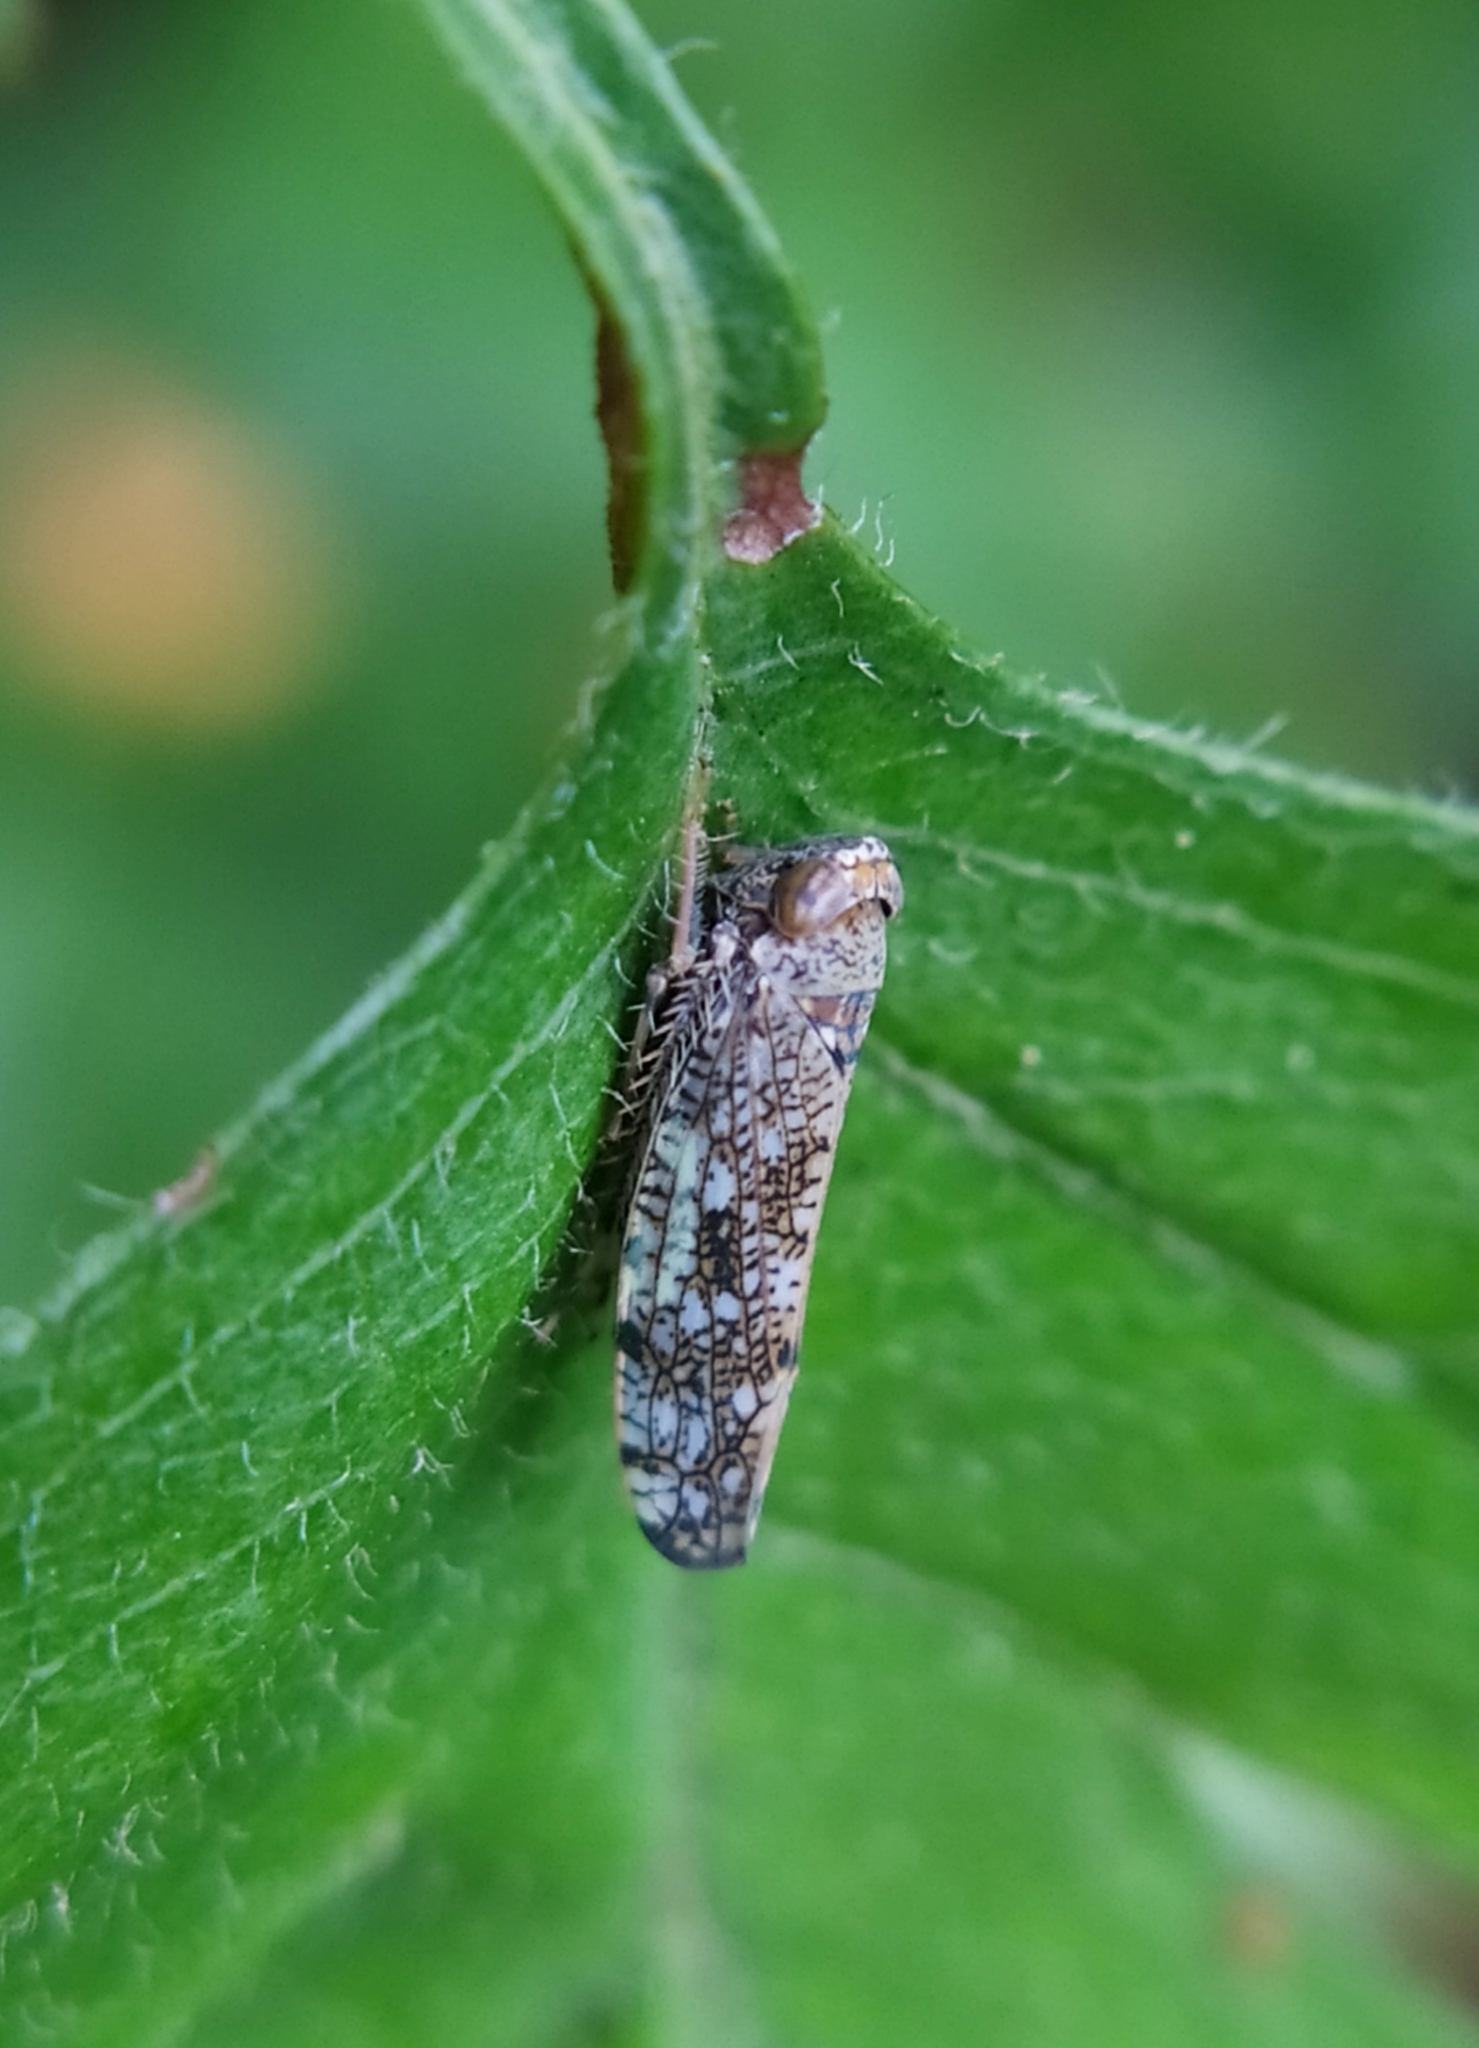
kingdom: Animalia
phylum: Arthropoda
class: Insecta
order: Hemiptera
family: Cicadellidae
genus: Orientus
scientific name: Orientus ishidae
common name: Japanese leafhopper
